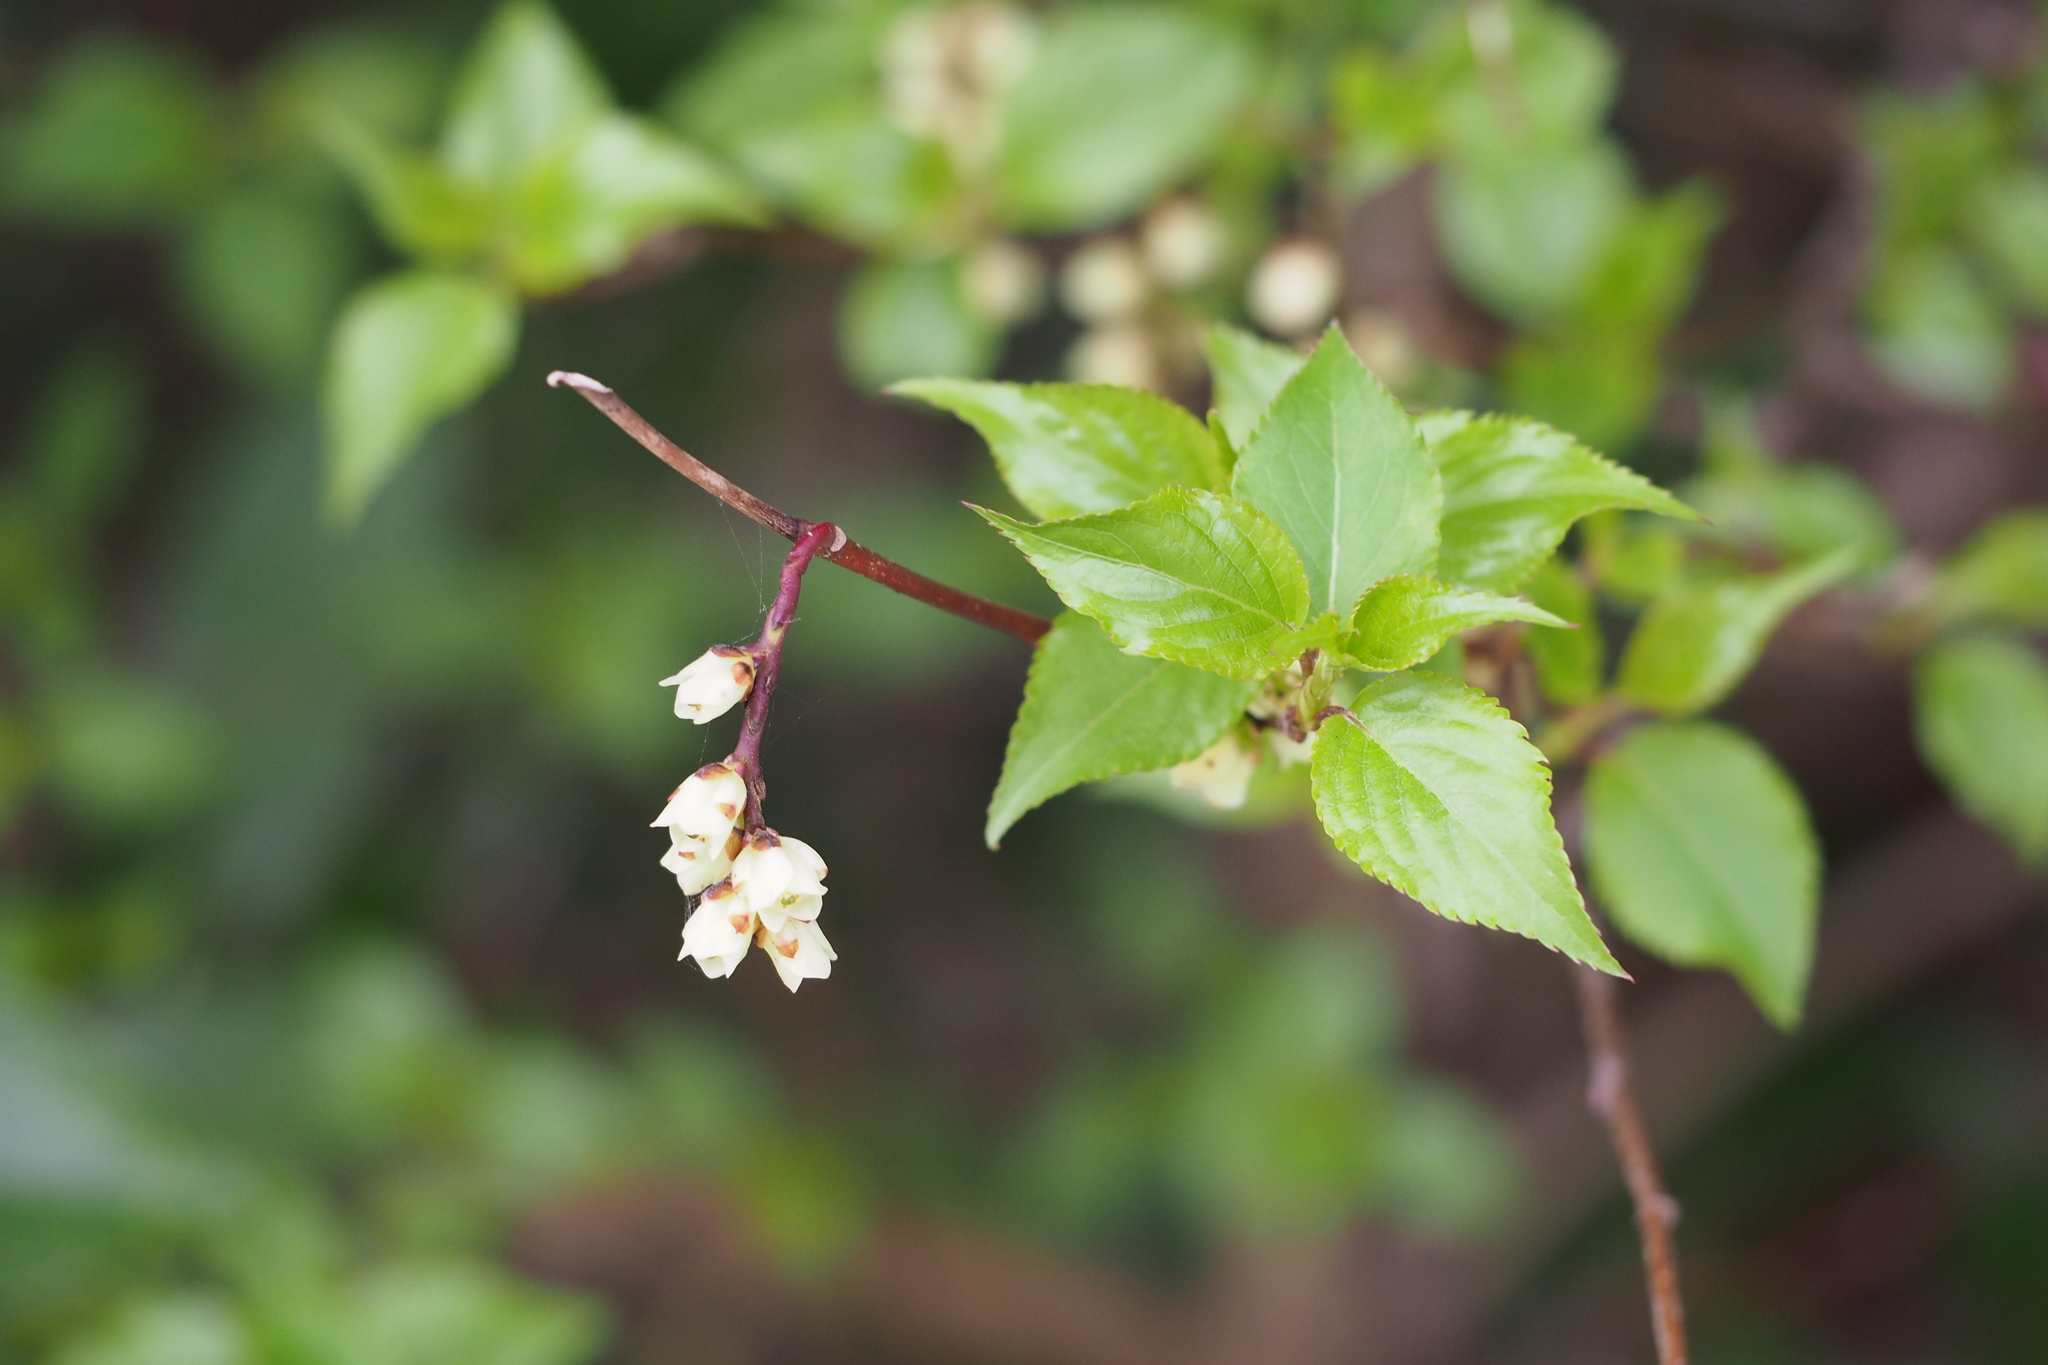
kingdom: Plantae
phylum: Tracheophyta
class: Magnoliopsida
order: Crossosomatales
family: Stachyuraceae
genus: Stachyurus
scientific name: Stachyurus praecox
